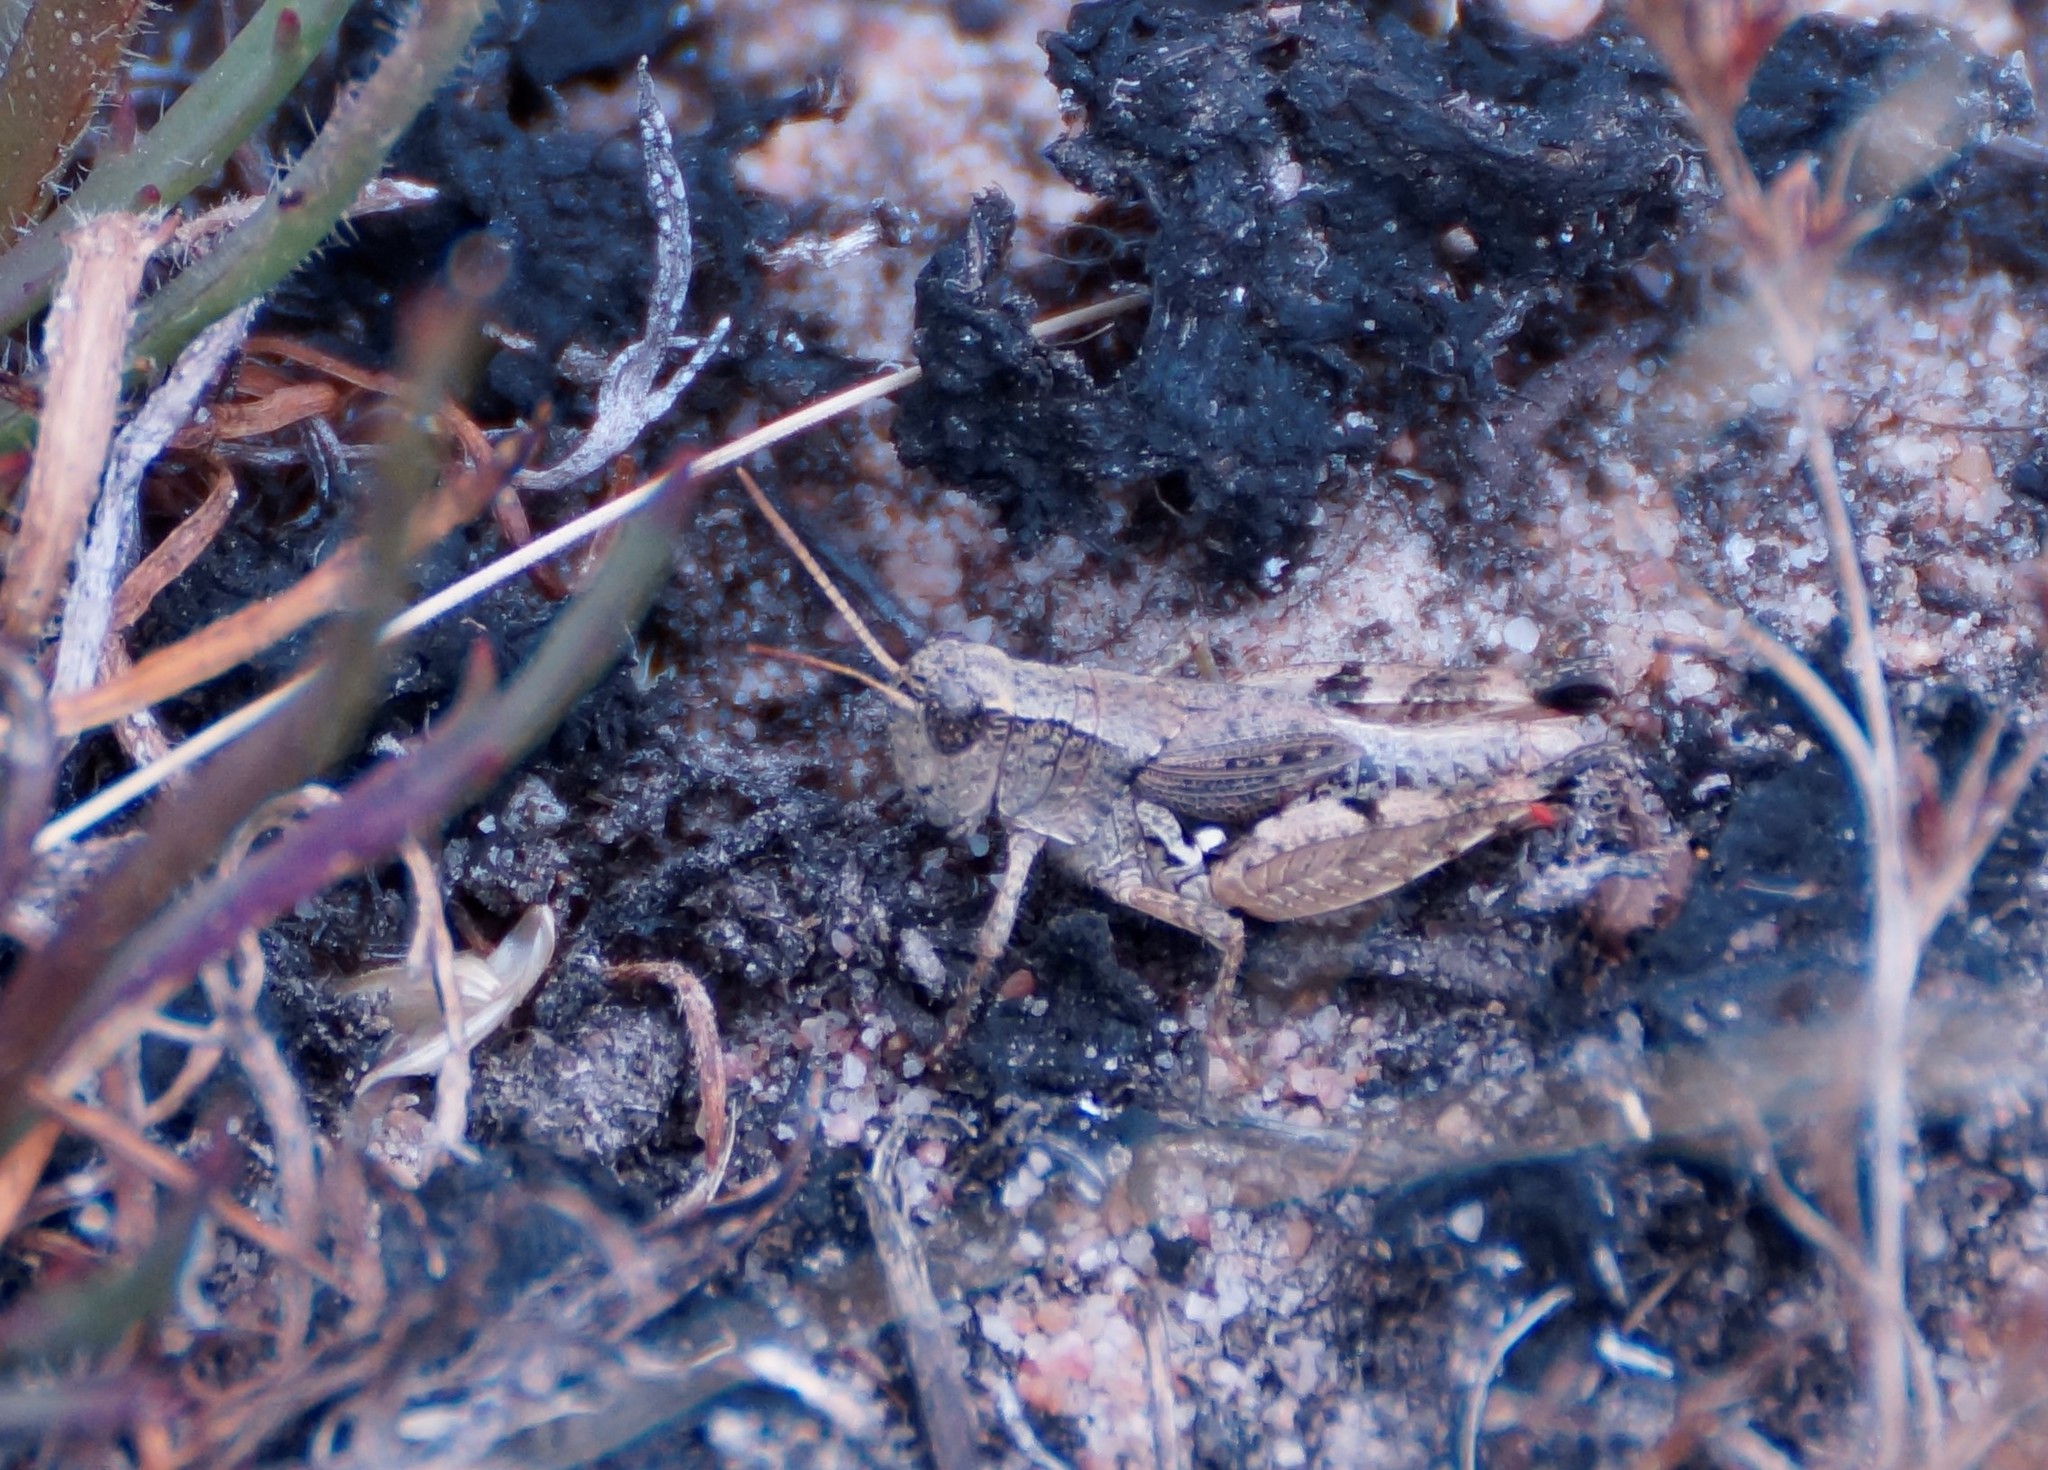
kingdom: Animalia
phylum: Arthropoda
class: Insecta
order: Orthoptera
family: Acrididae
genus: Phaulacridium
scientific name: Phaulacridium vittatum
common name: Wingless grasshopper
